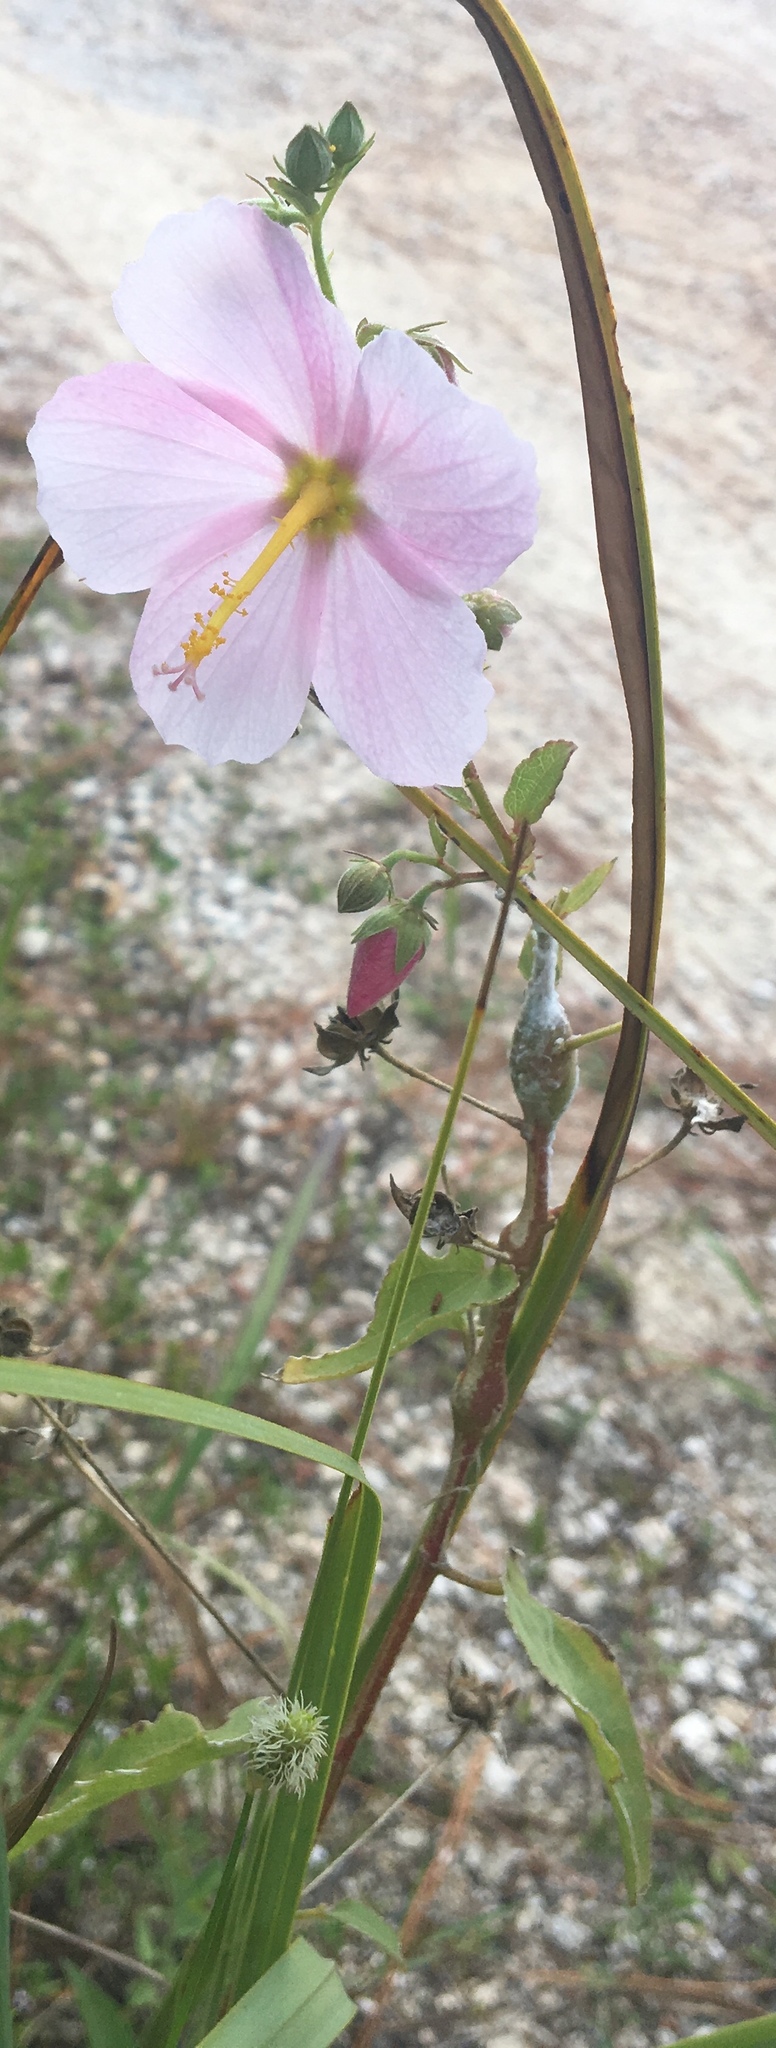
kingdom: Plantae
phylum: Tracheophyta
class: Magnoliopsida
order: Malvales
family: Malvaceae
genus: Kosteletzkya
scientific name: Kosteletzkya pentacarpos
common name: Virginia saltmarsh mallow
